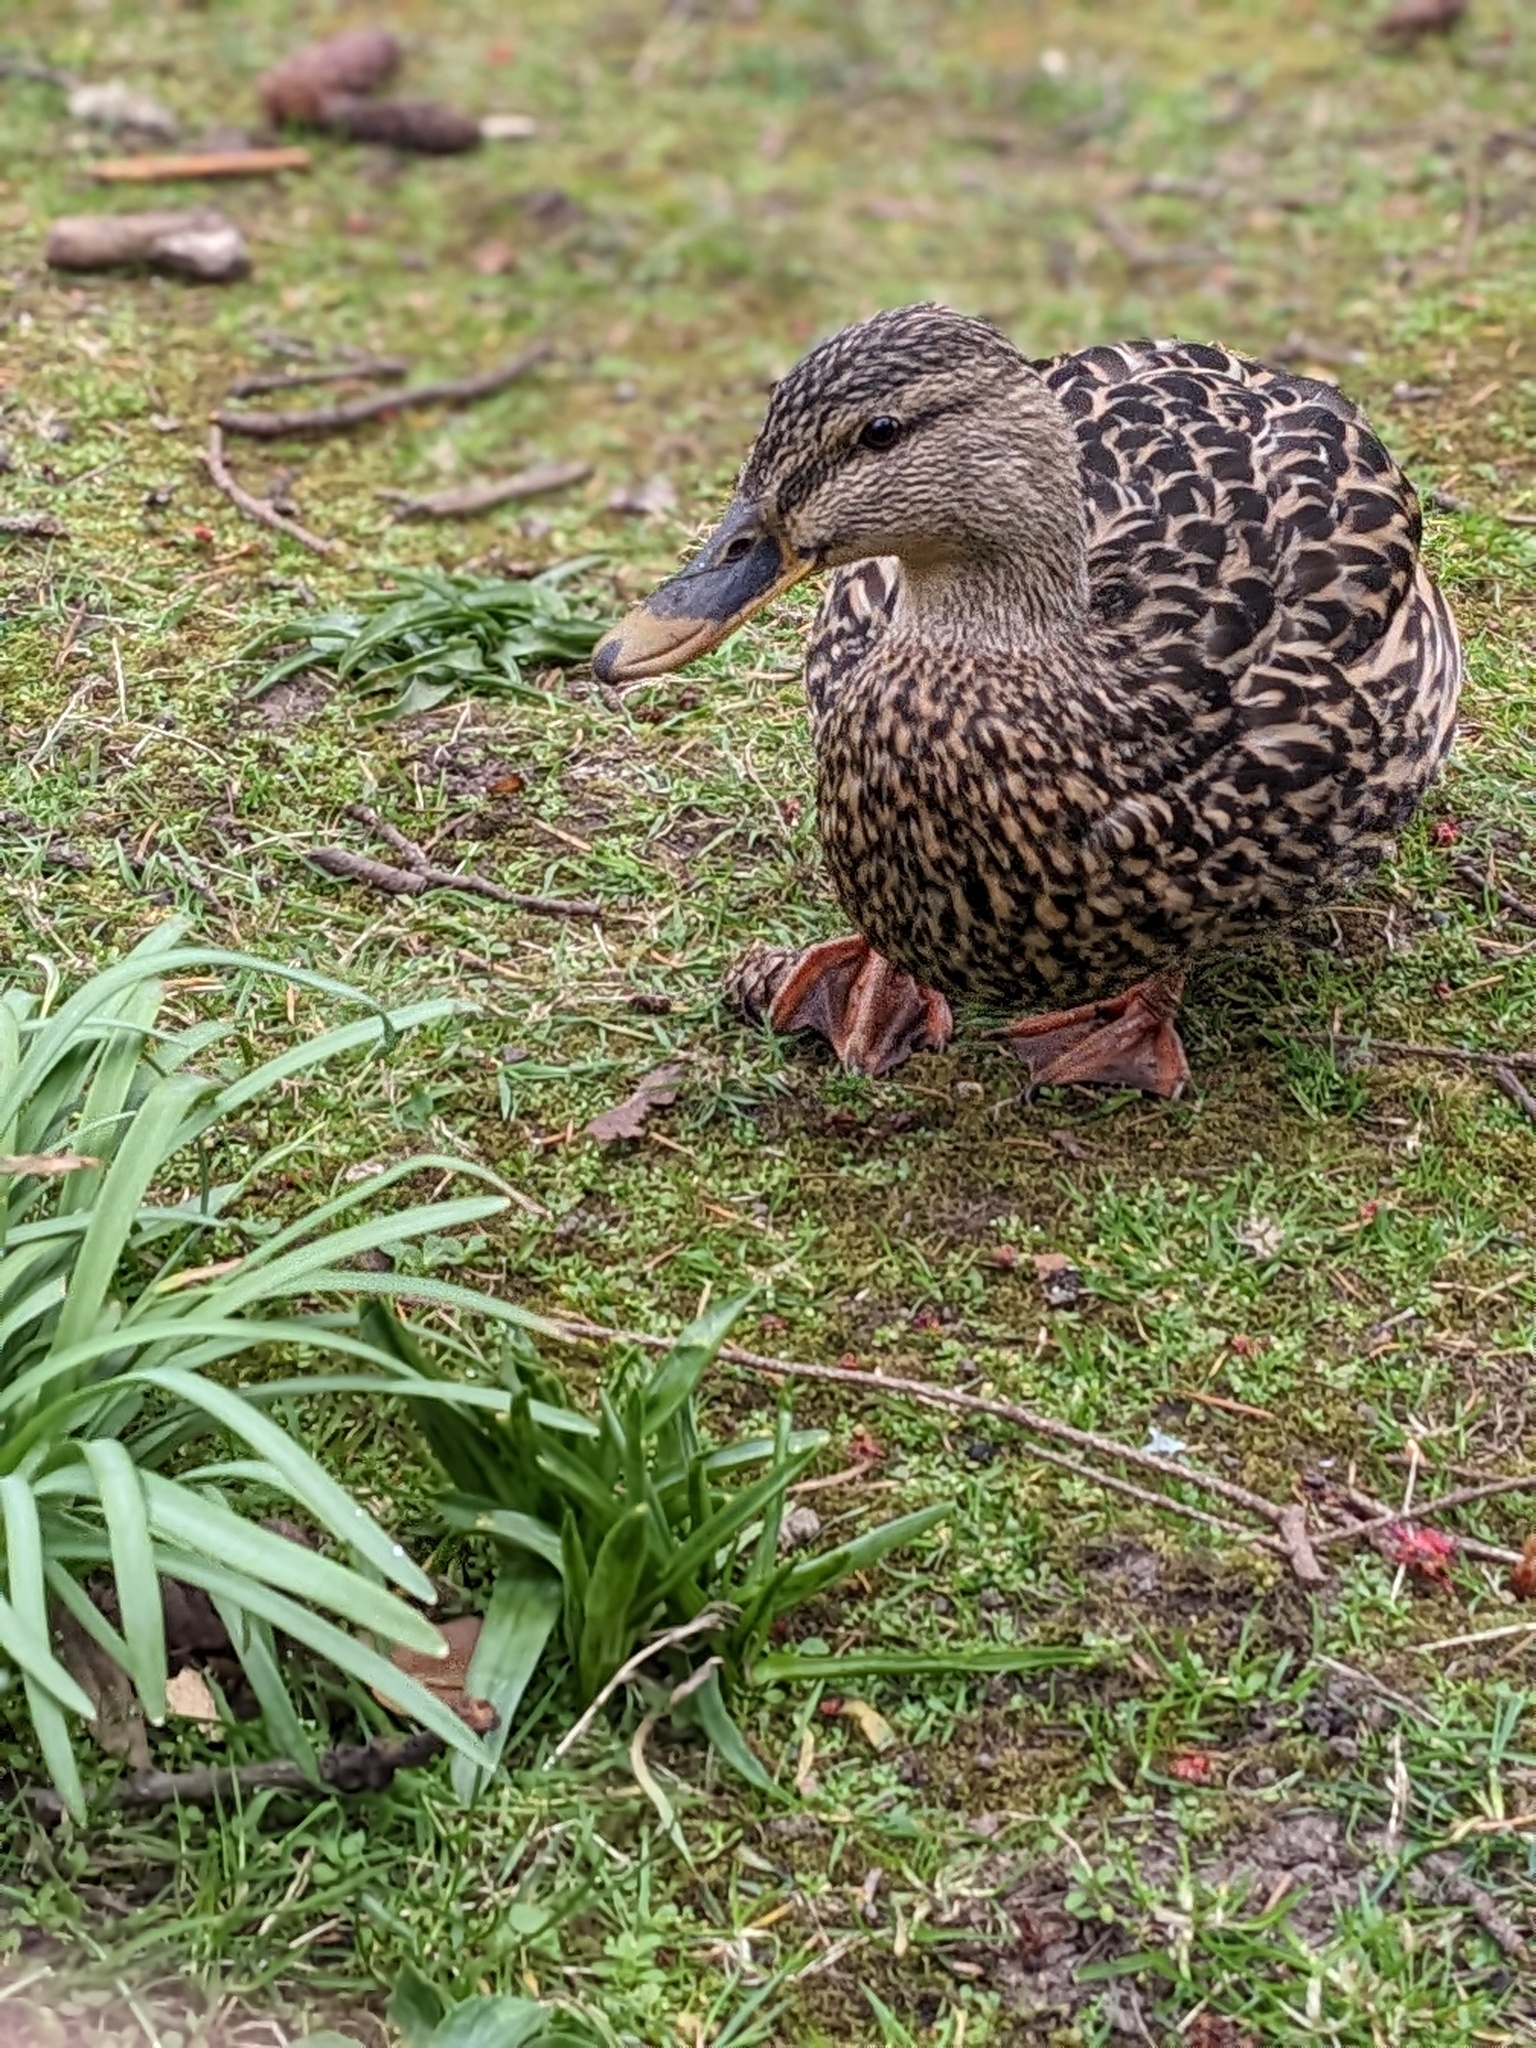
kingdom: Animalia
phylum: Chordata
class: Aves
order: Anseriformes
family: Anatidae
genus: Anas
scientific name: Anas platyrhynchos
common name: Mallard
